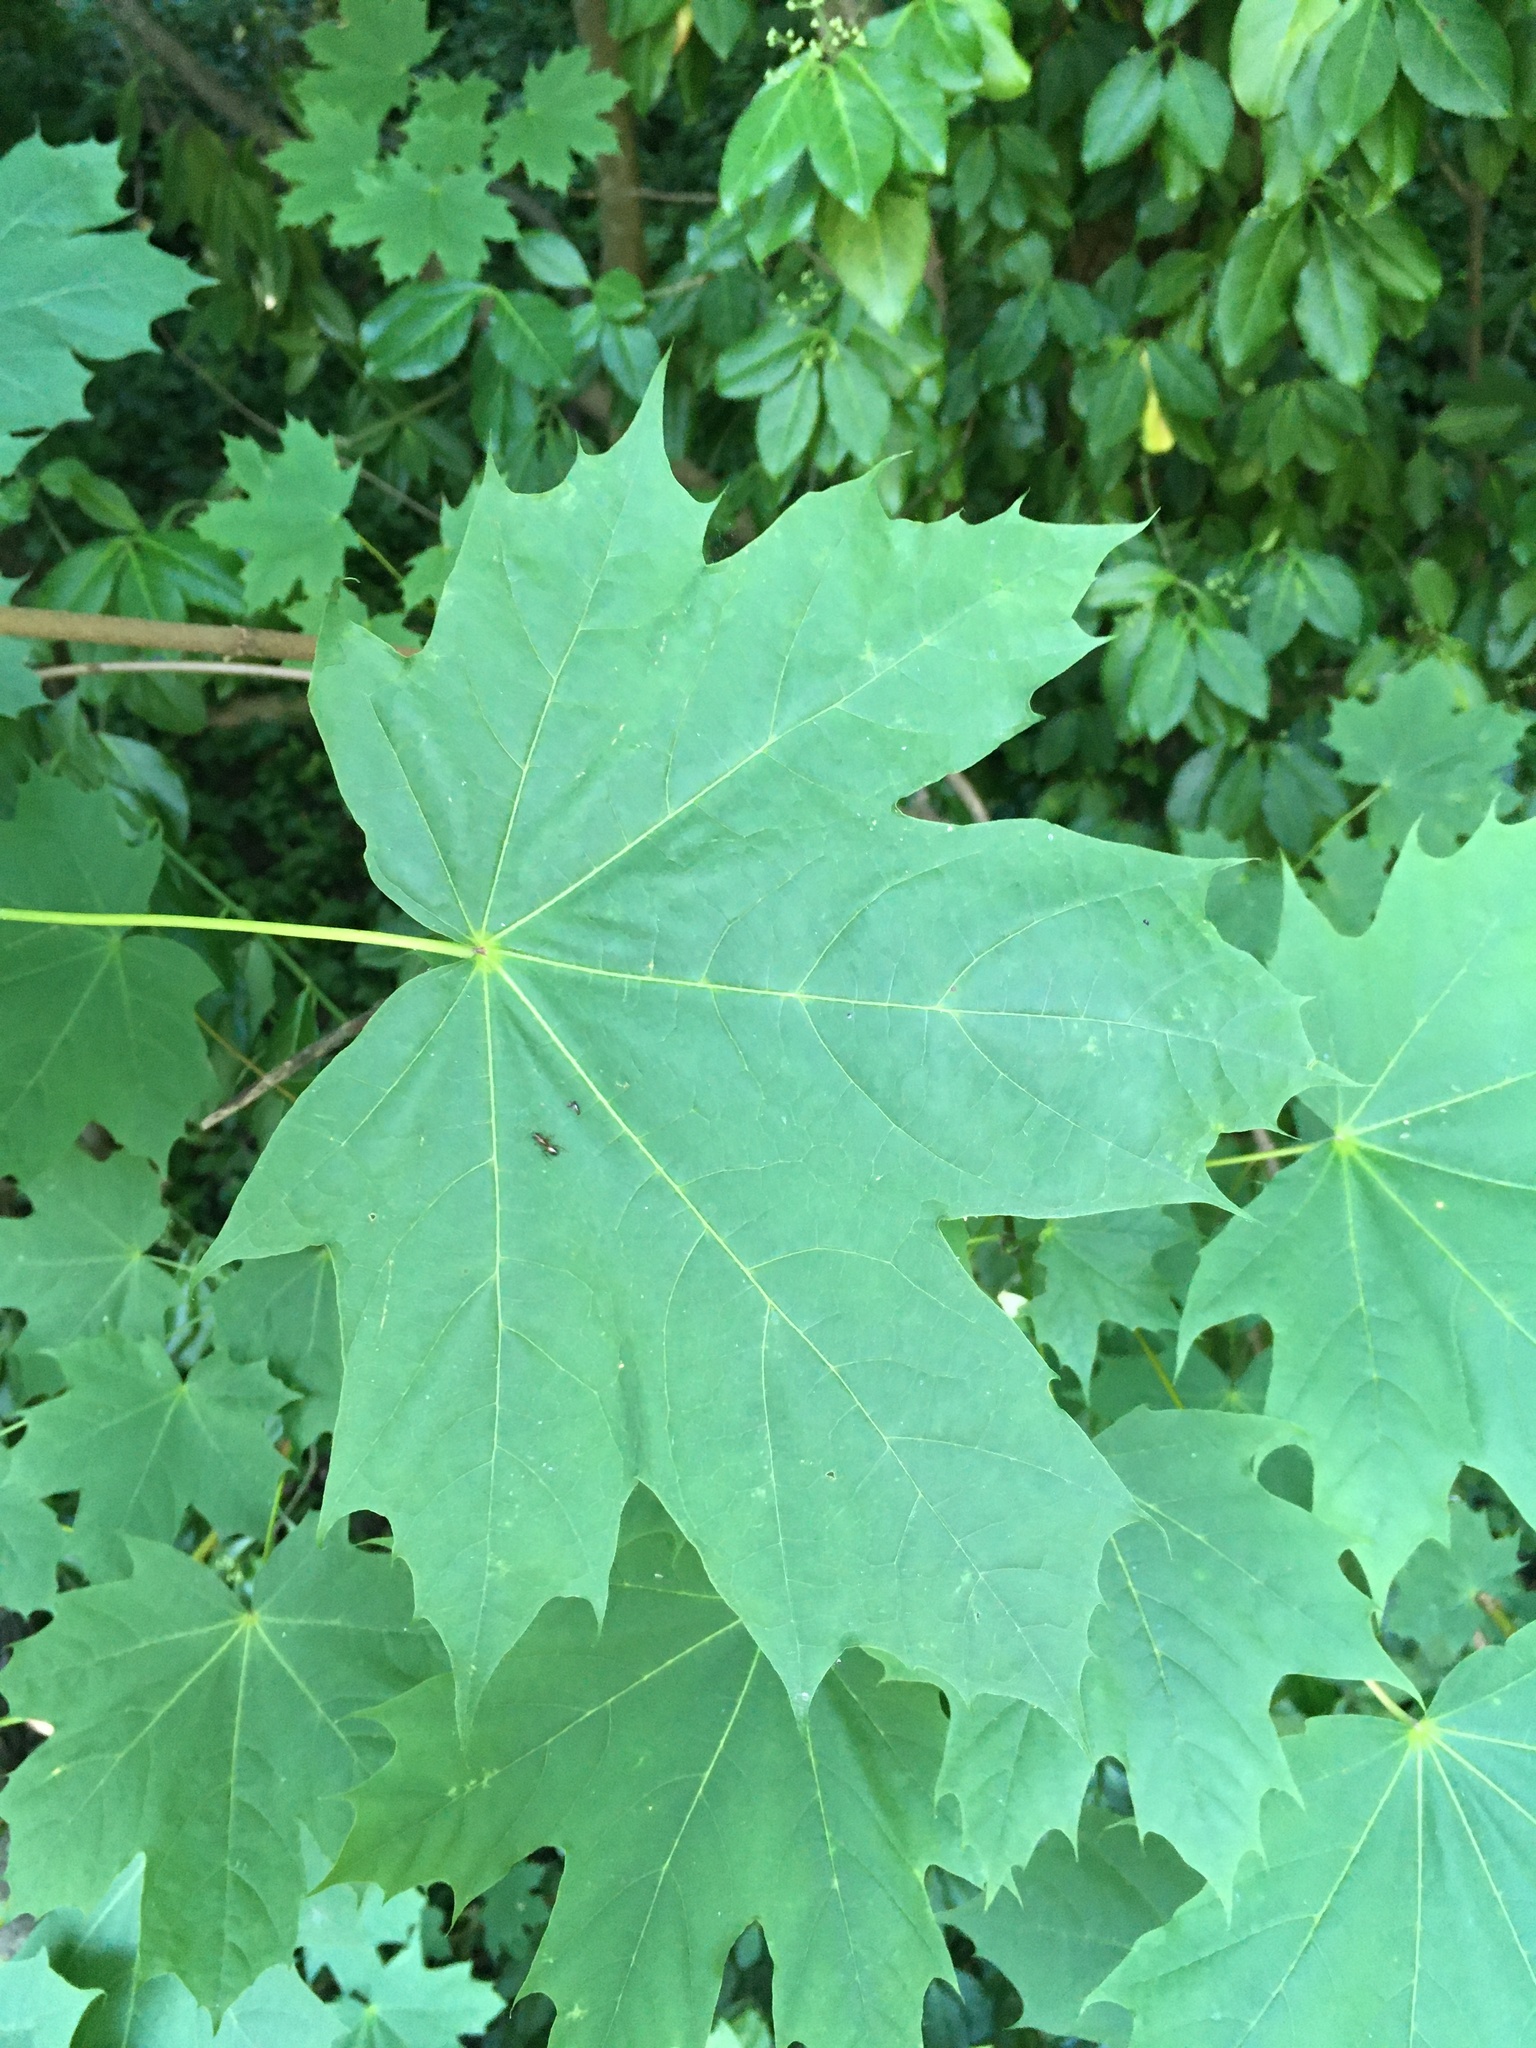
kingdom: Plantae
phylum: Tracheophyta
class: Magnoliopsida
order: Sapindales
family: Sapindaceae
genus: Acer
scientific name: Acer platanoides
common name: Norway maple
